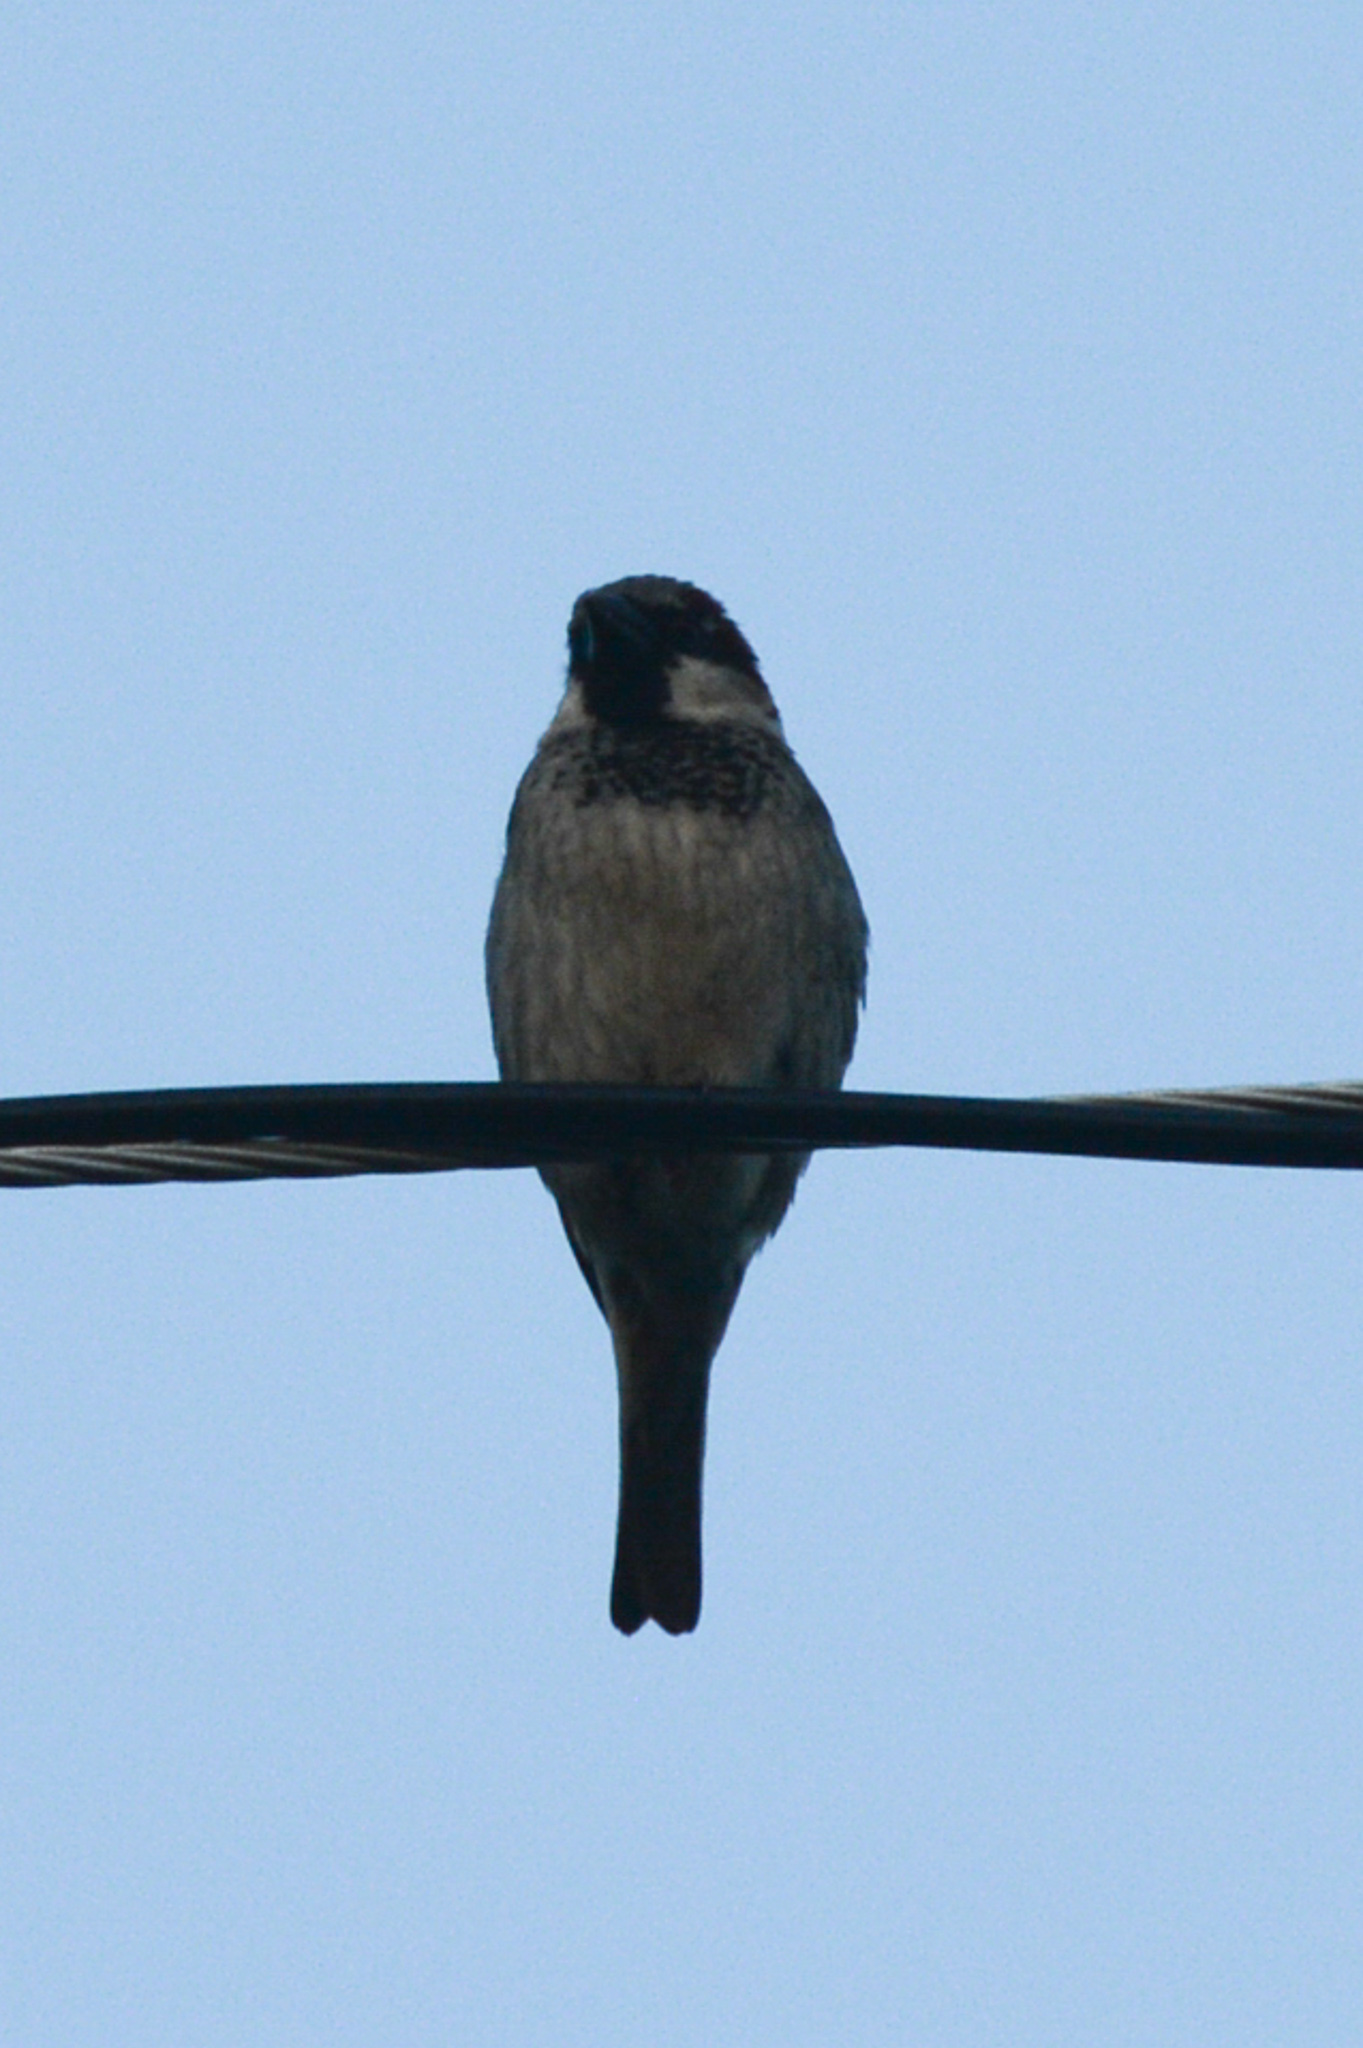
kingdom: Animalia
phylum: Chordata
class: Aves
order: Passeriformes
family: Passeridae
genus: Passer
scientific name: Passer domesticus
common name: House sparrow
